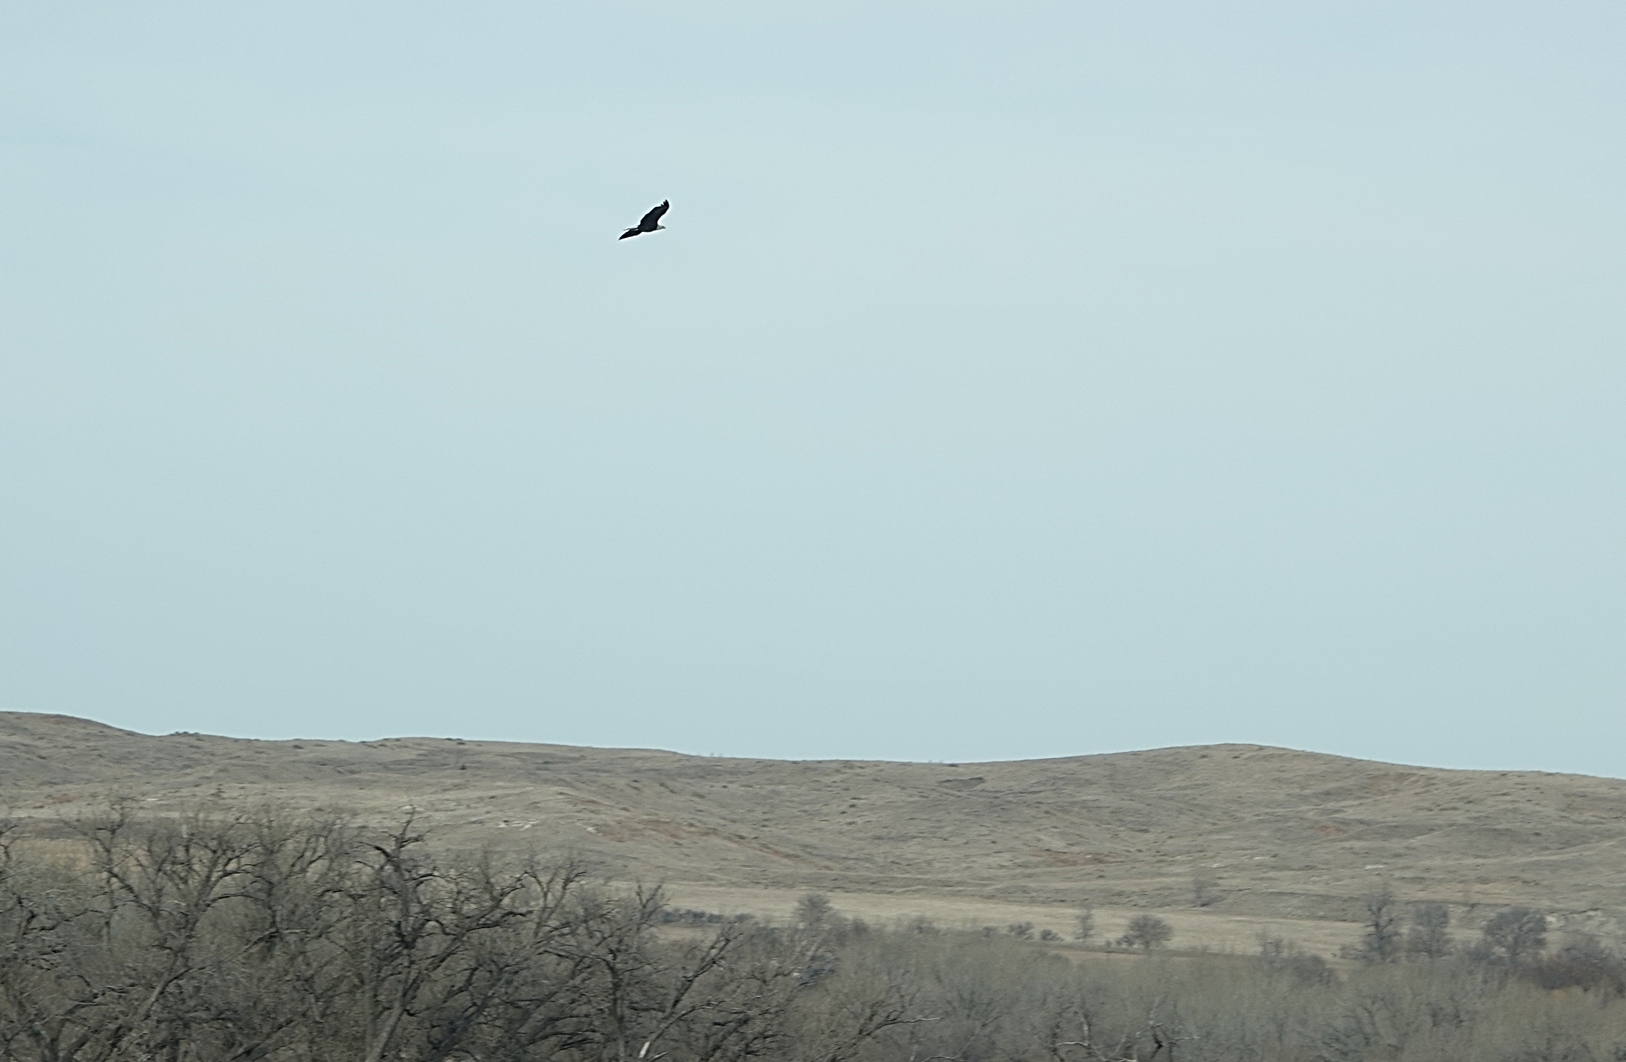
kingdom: Animalia
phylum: Chordata
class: Aves
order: Accipitriformes
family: Accipitridae
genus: Haliaeetus
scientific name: Haliaeetus leucocephalus
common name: Bald eagle
